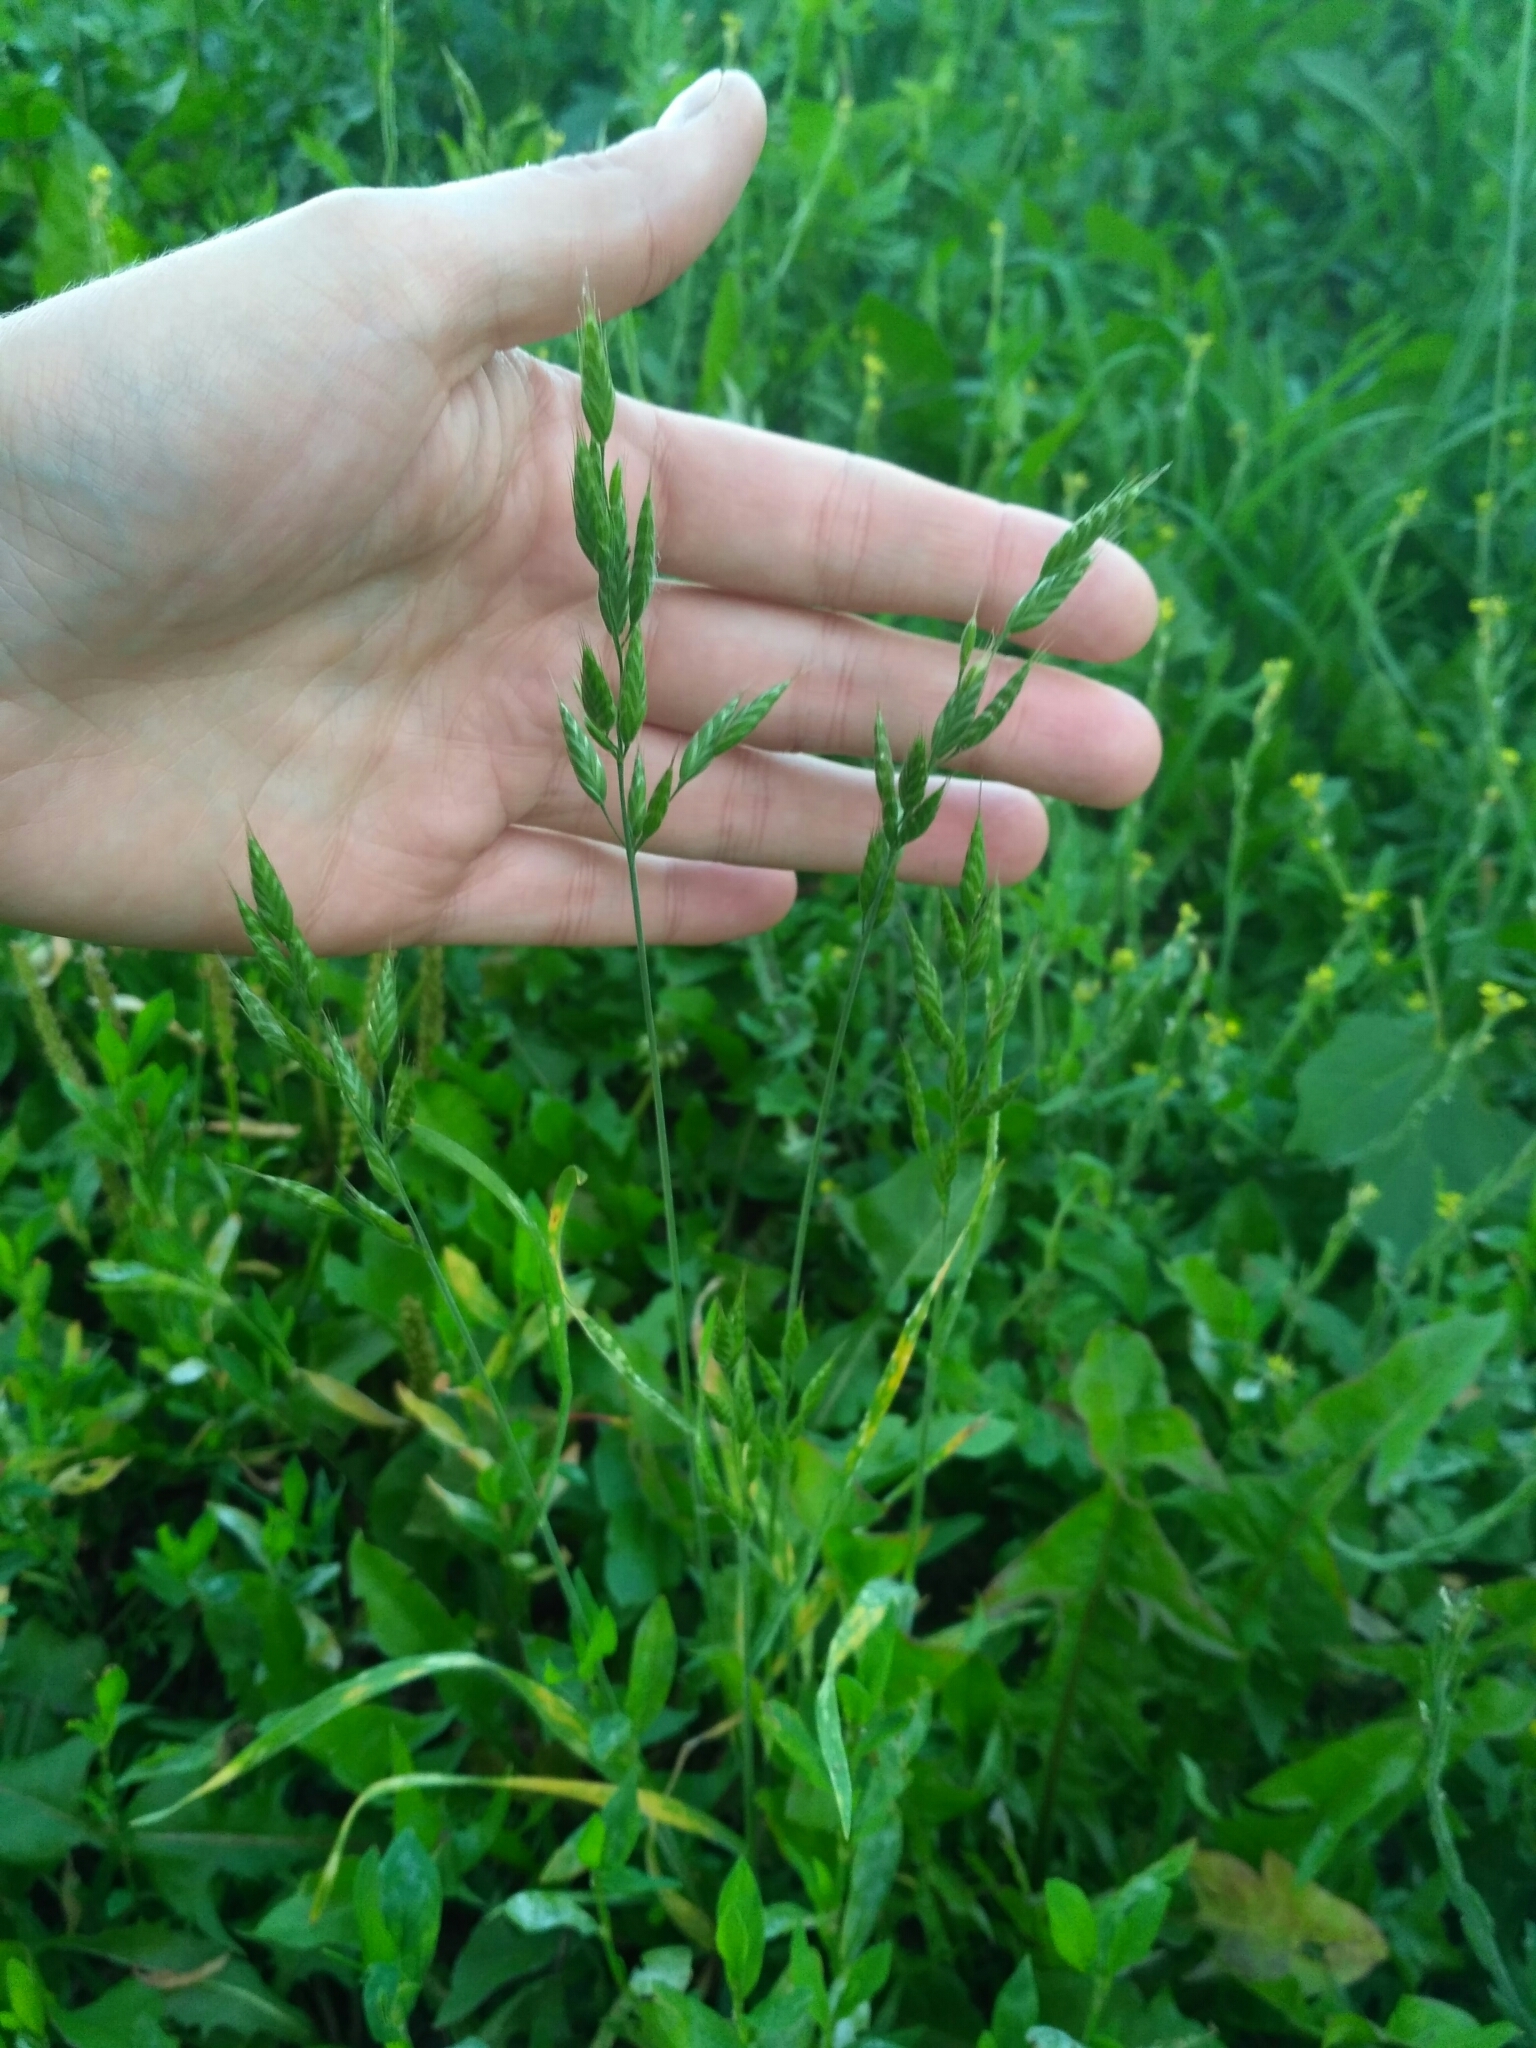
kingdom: Plantae
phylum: Tracheophyta
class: Liliopsida
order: Poales
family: Poaceae
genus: Bromus
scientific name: Bromus hordeaceus
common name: Soft brome
